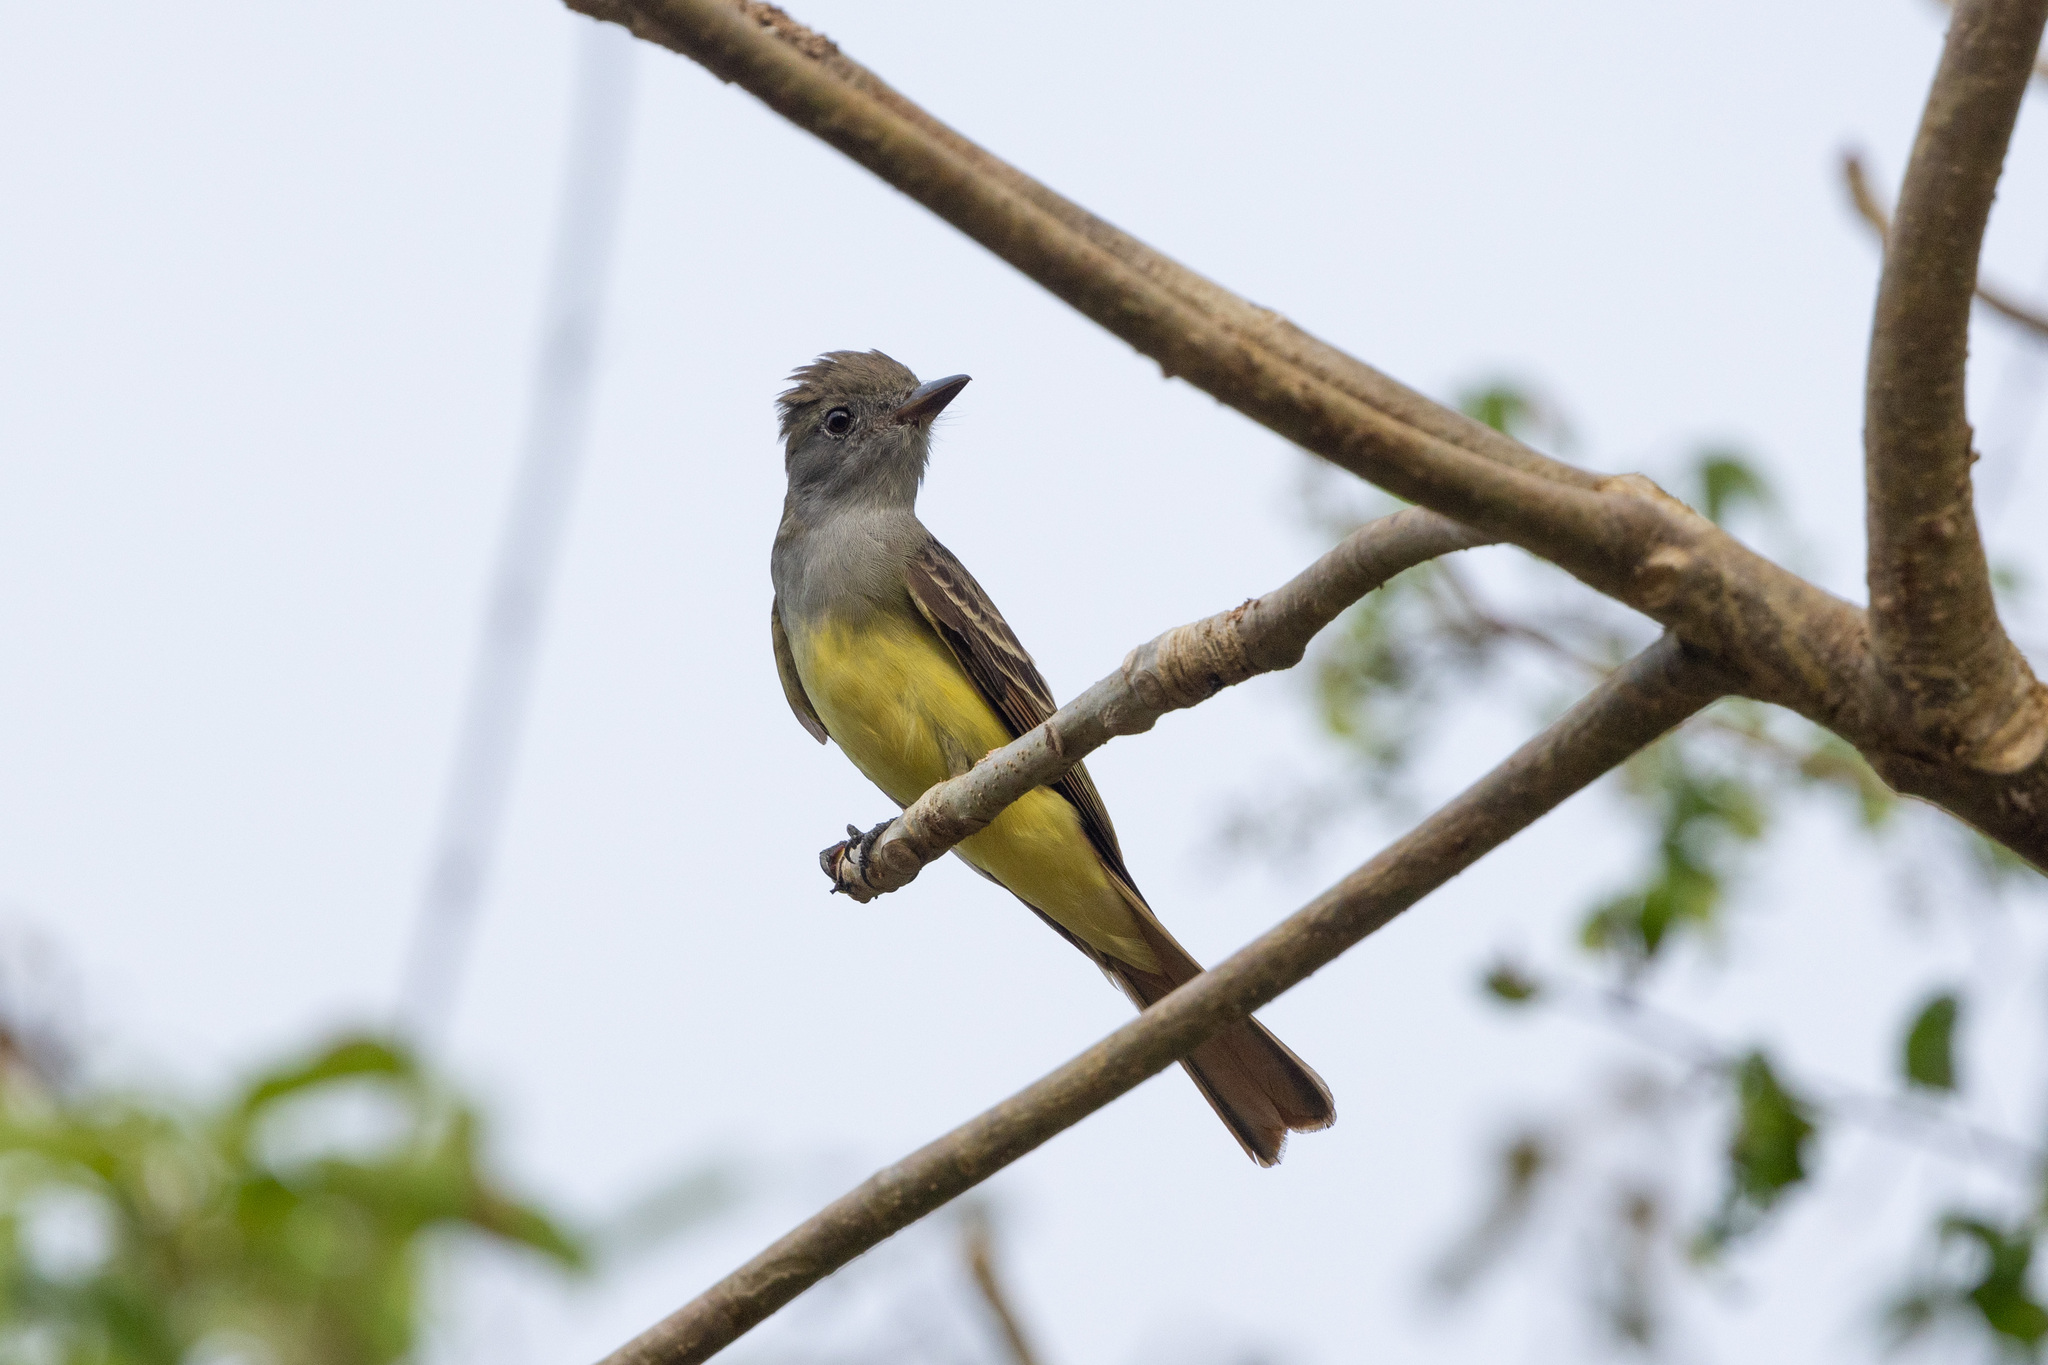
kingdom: Animalia
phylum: Chordata
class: Aves
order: Passeriformes
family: Tyrannidae
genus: Myiarchus
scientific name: Myiarchus crinitus
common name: Great crested flycatcher
